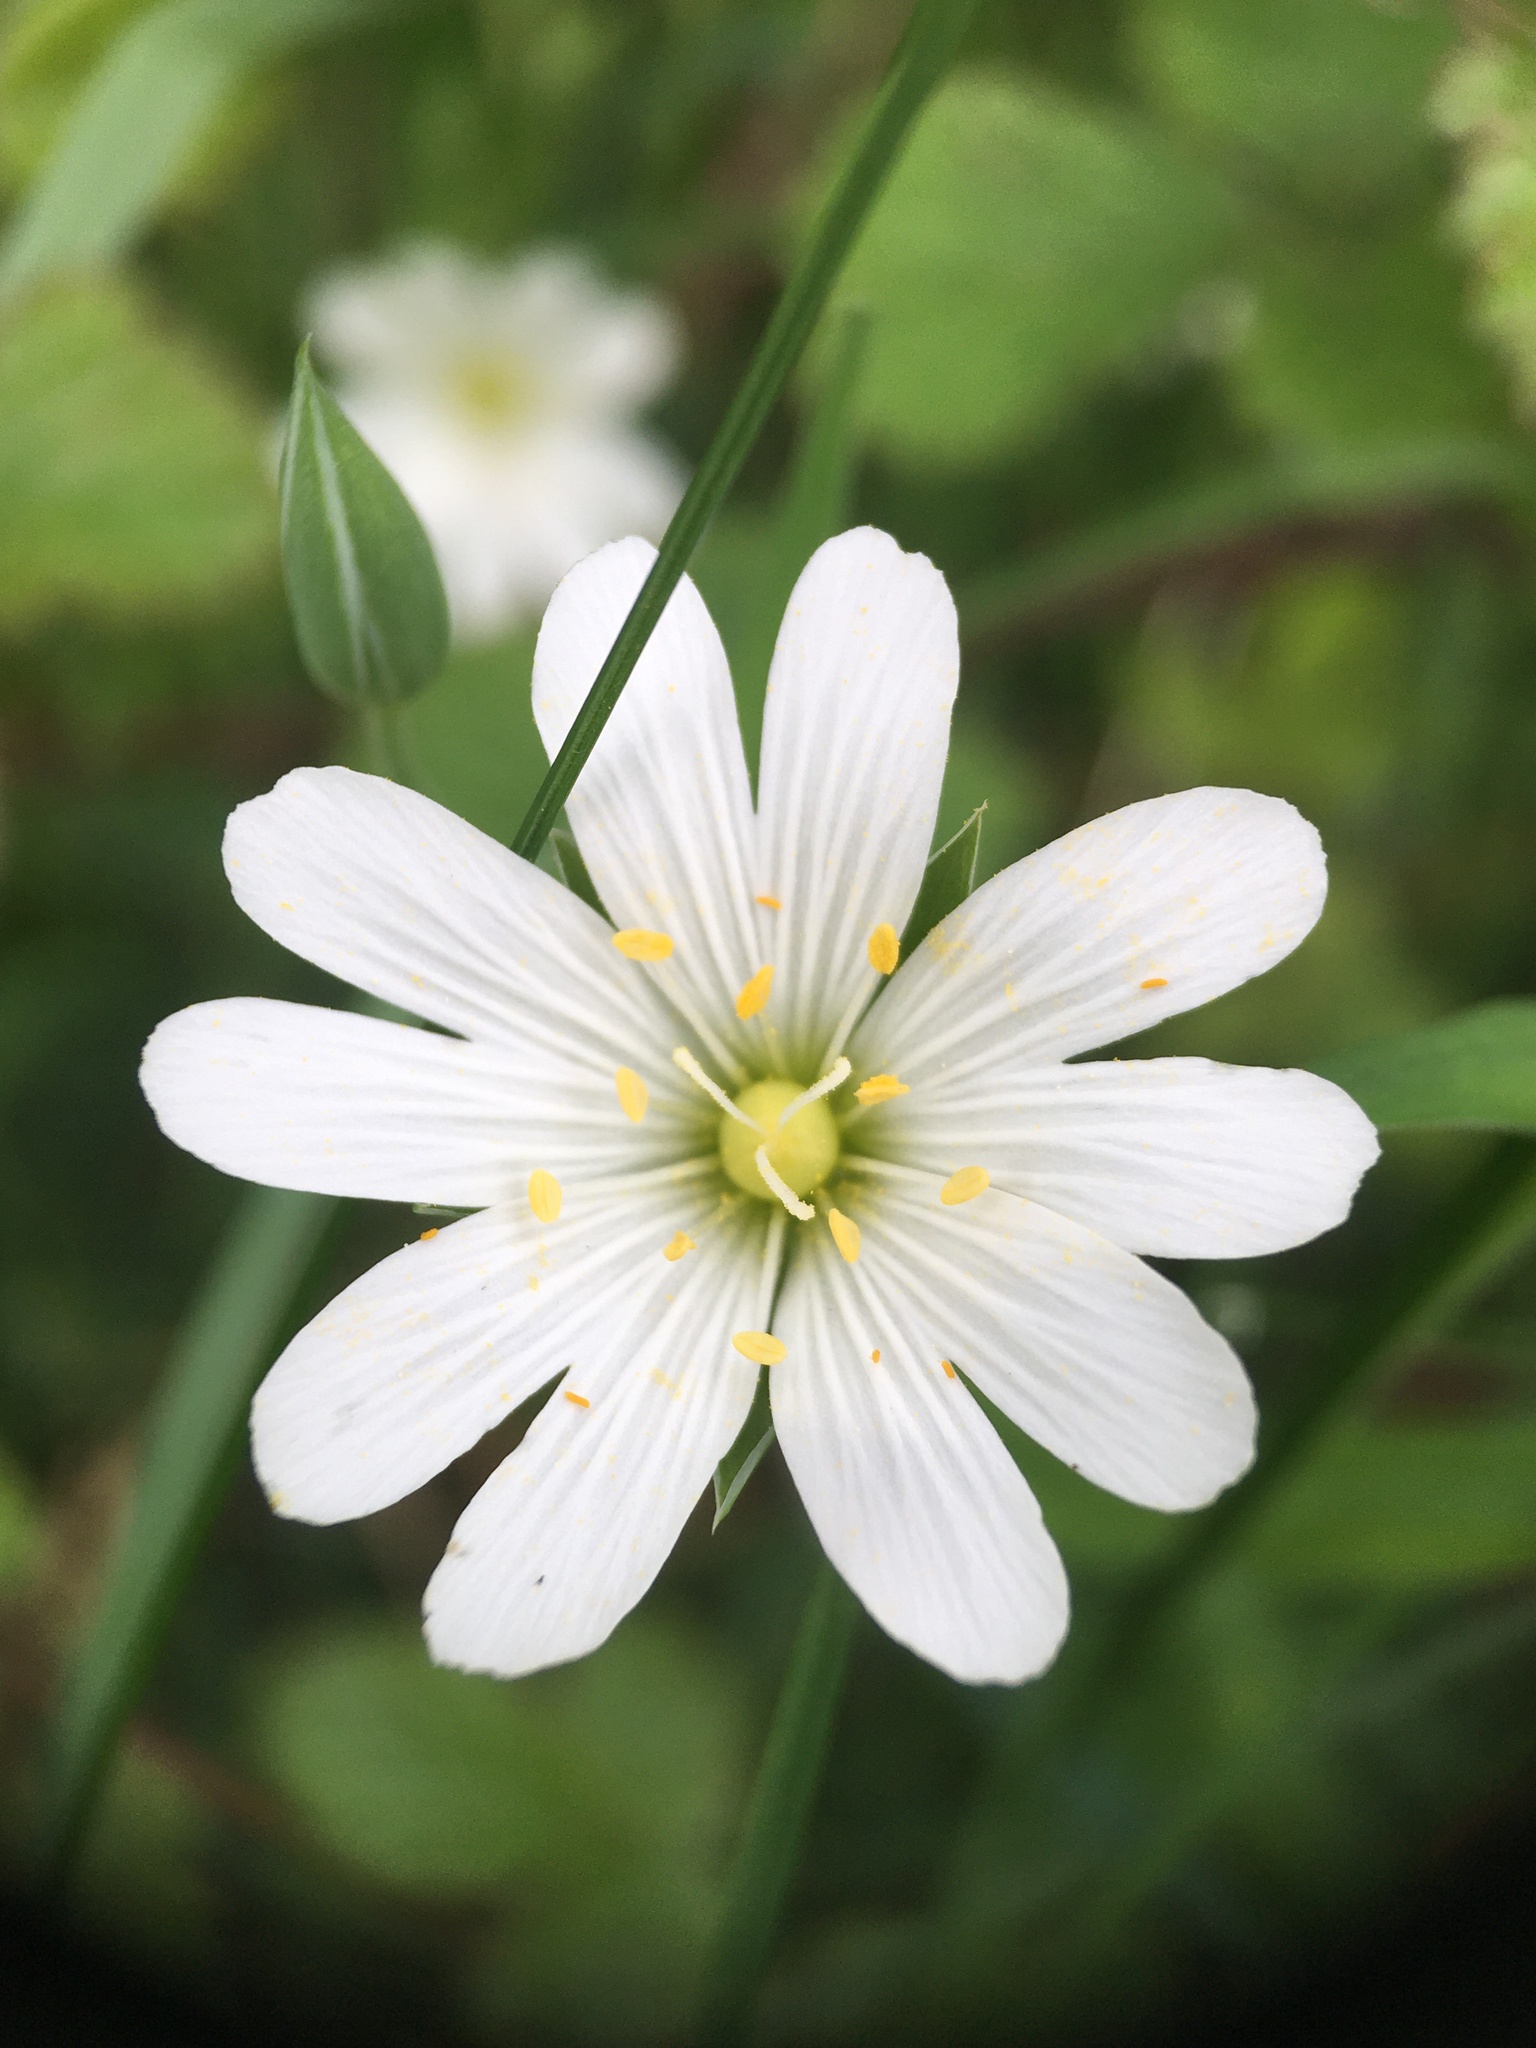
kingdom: Plantae
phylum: Tracheophyta
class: Magnoliopsida
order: Caryophyllales
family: Caryophyllaceae
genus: Rabelera
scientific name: Rabelera holostea
